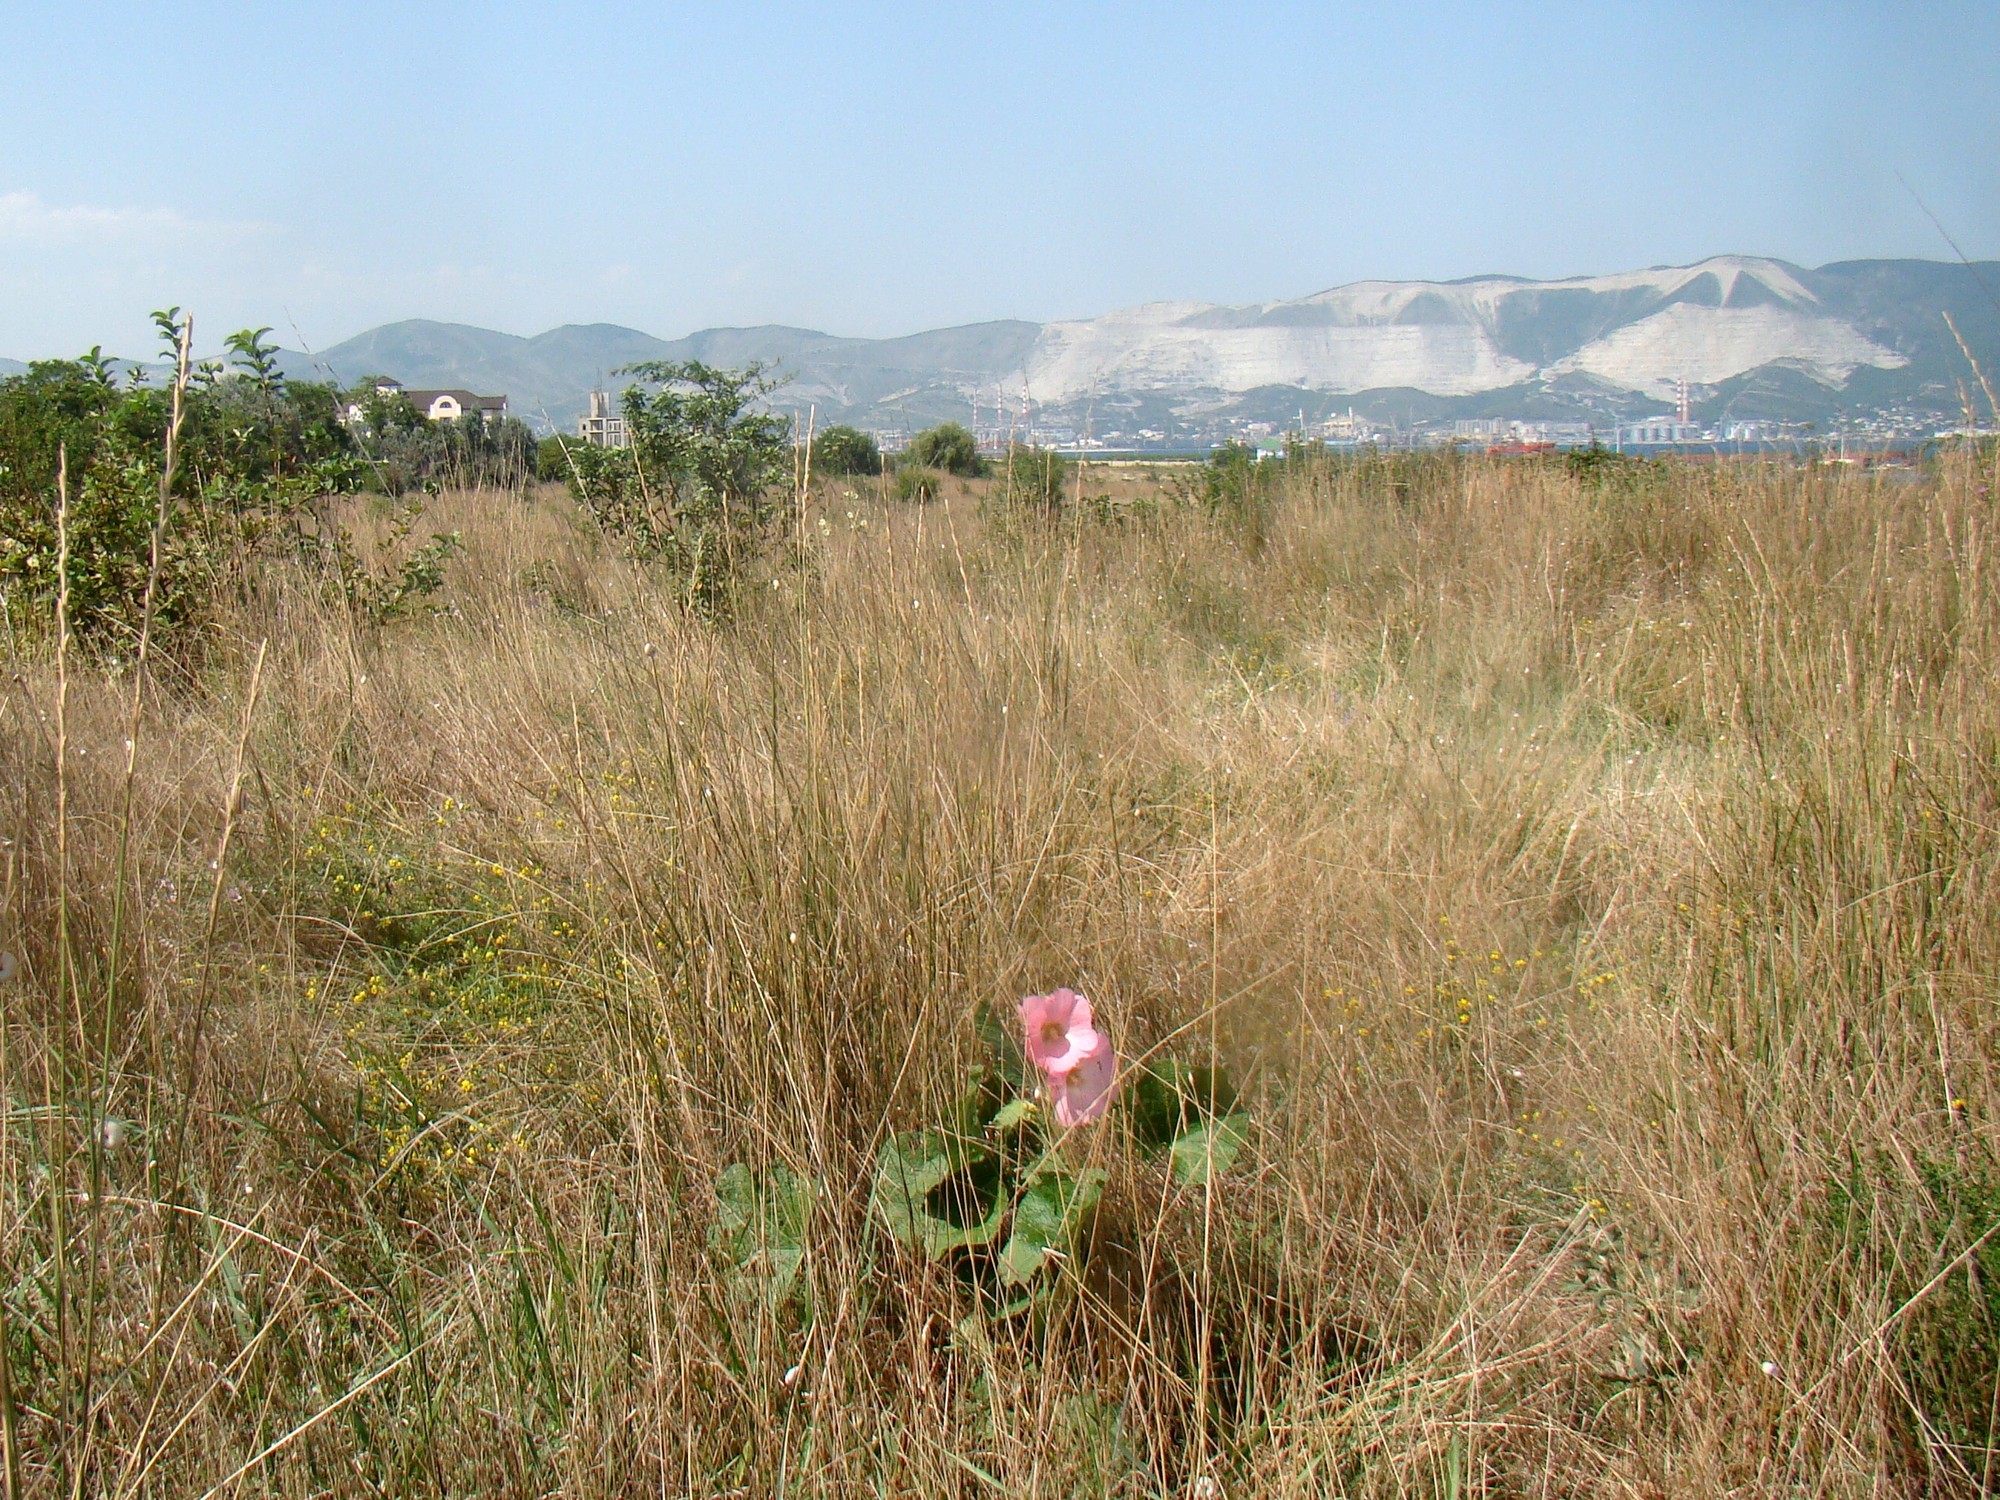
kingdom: Plantae
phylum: Tracheophyta
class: Magnoliopsida
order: Malvales
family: Malvaceae
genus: Alcea
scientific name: Alcea rosea
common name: Hollyhock
